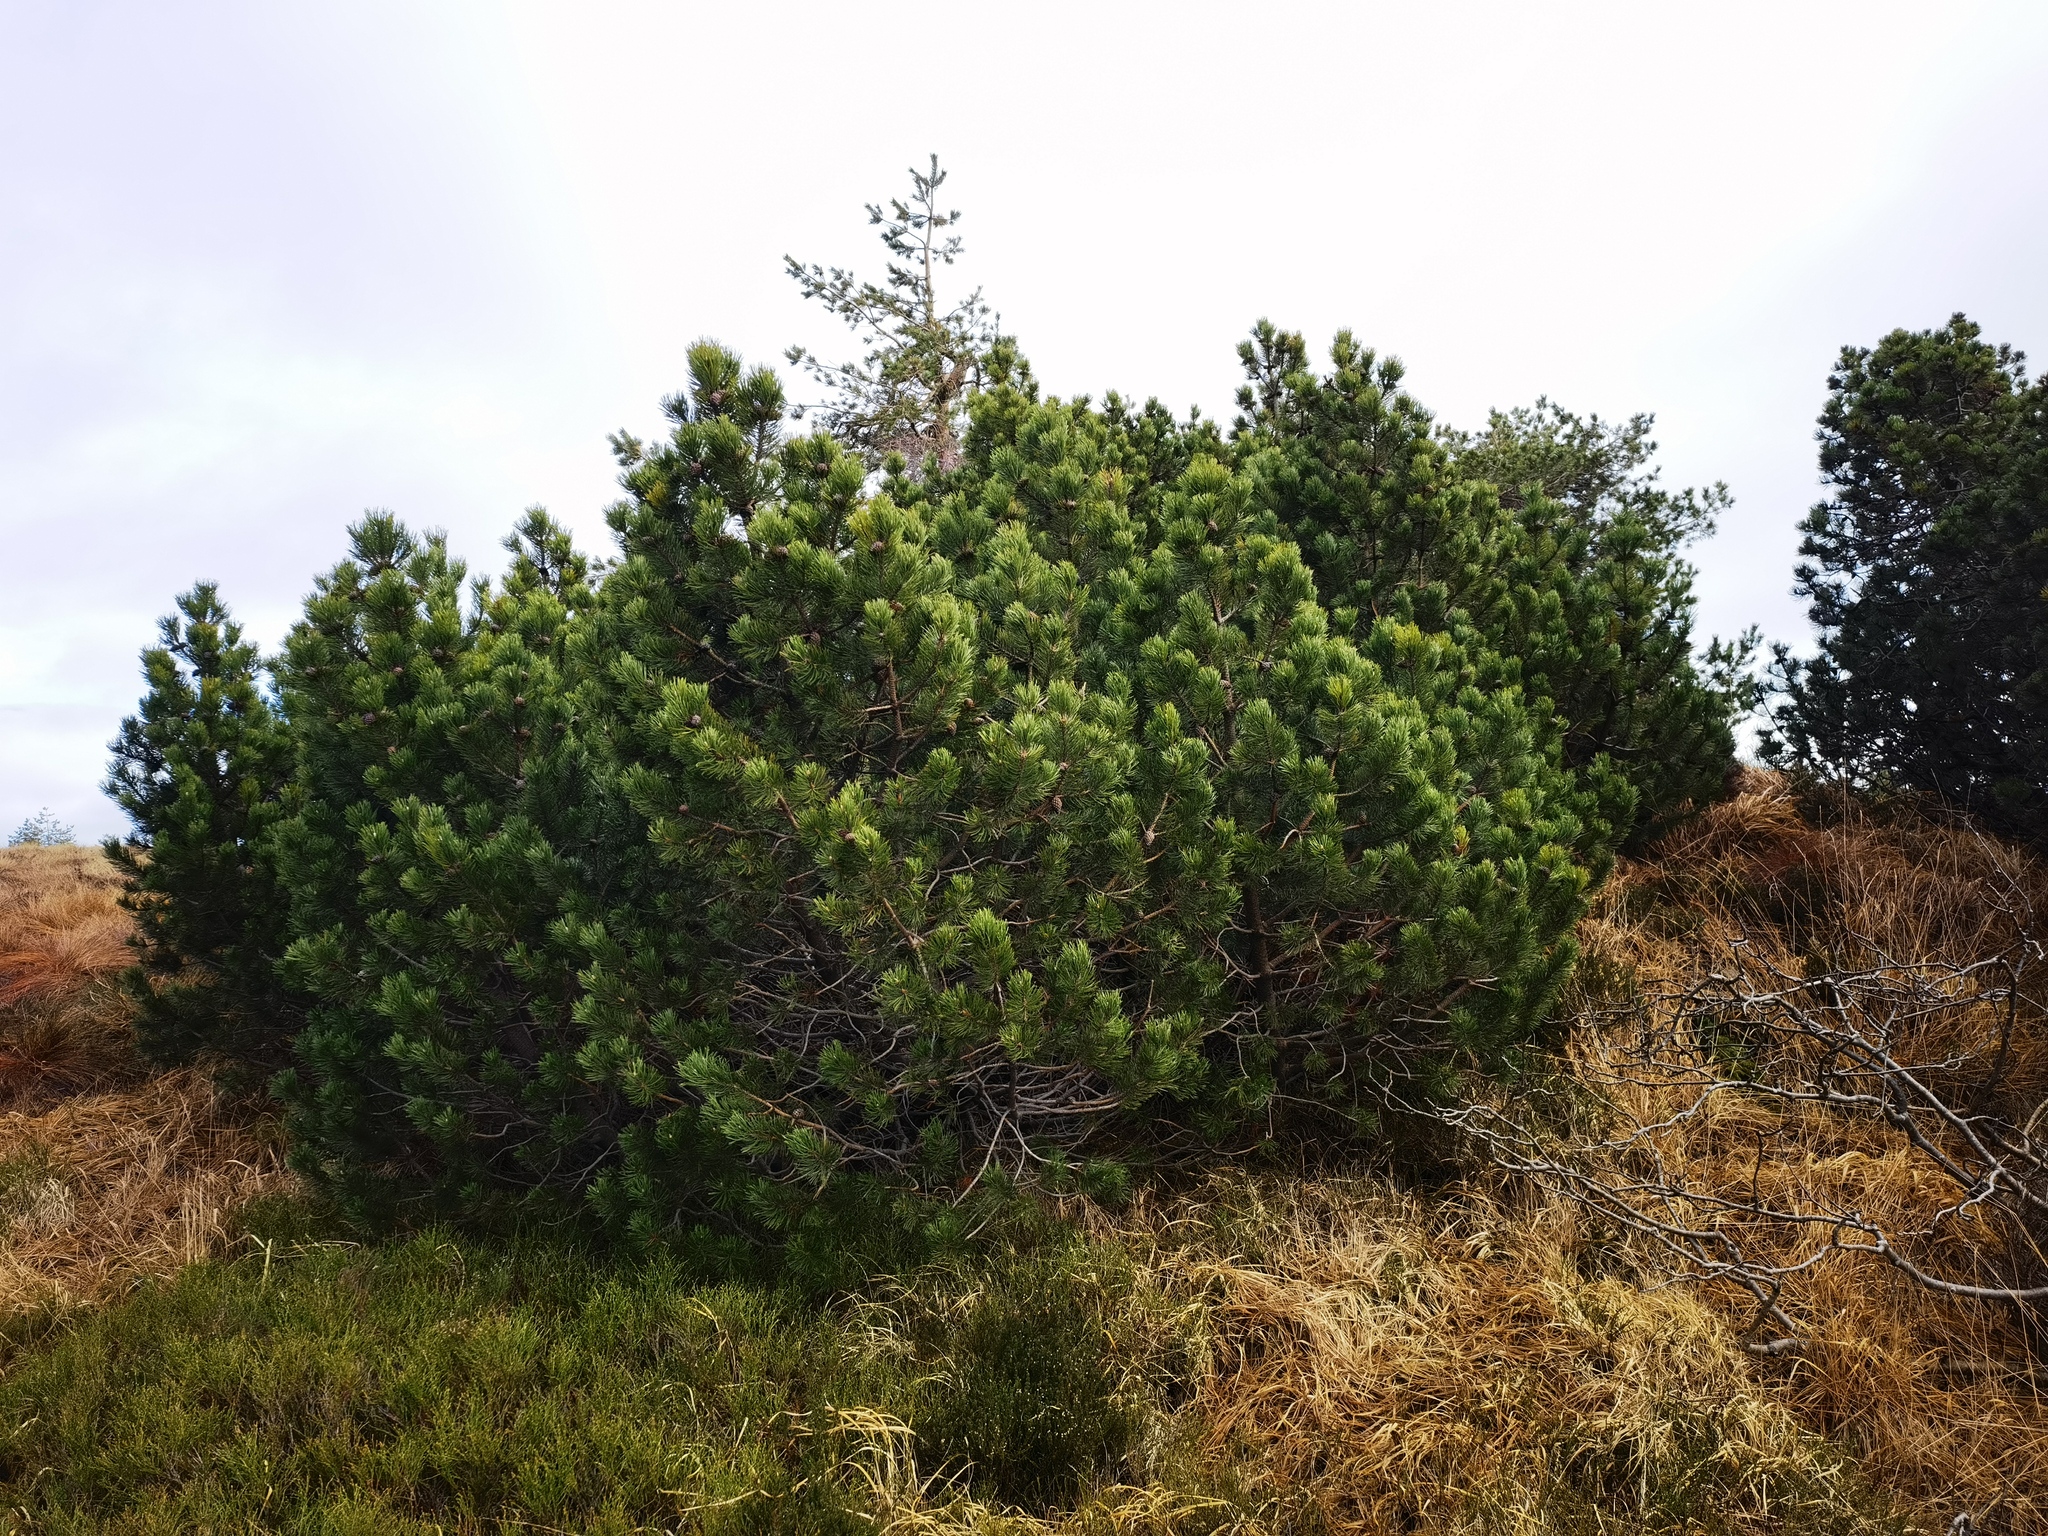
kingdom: Plantae
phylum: Tracheophyta
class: Pinopsida
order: Pinales
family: Pinaceae
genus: Pinus
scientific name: Pinus mugo
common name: Mugo pine
